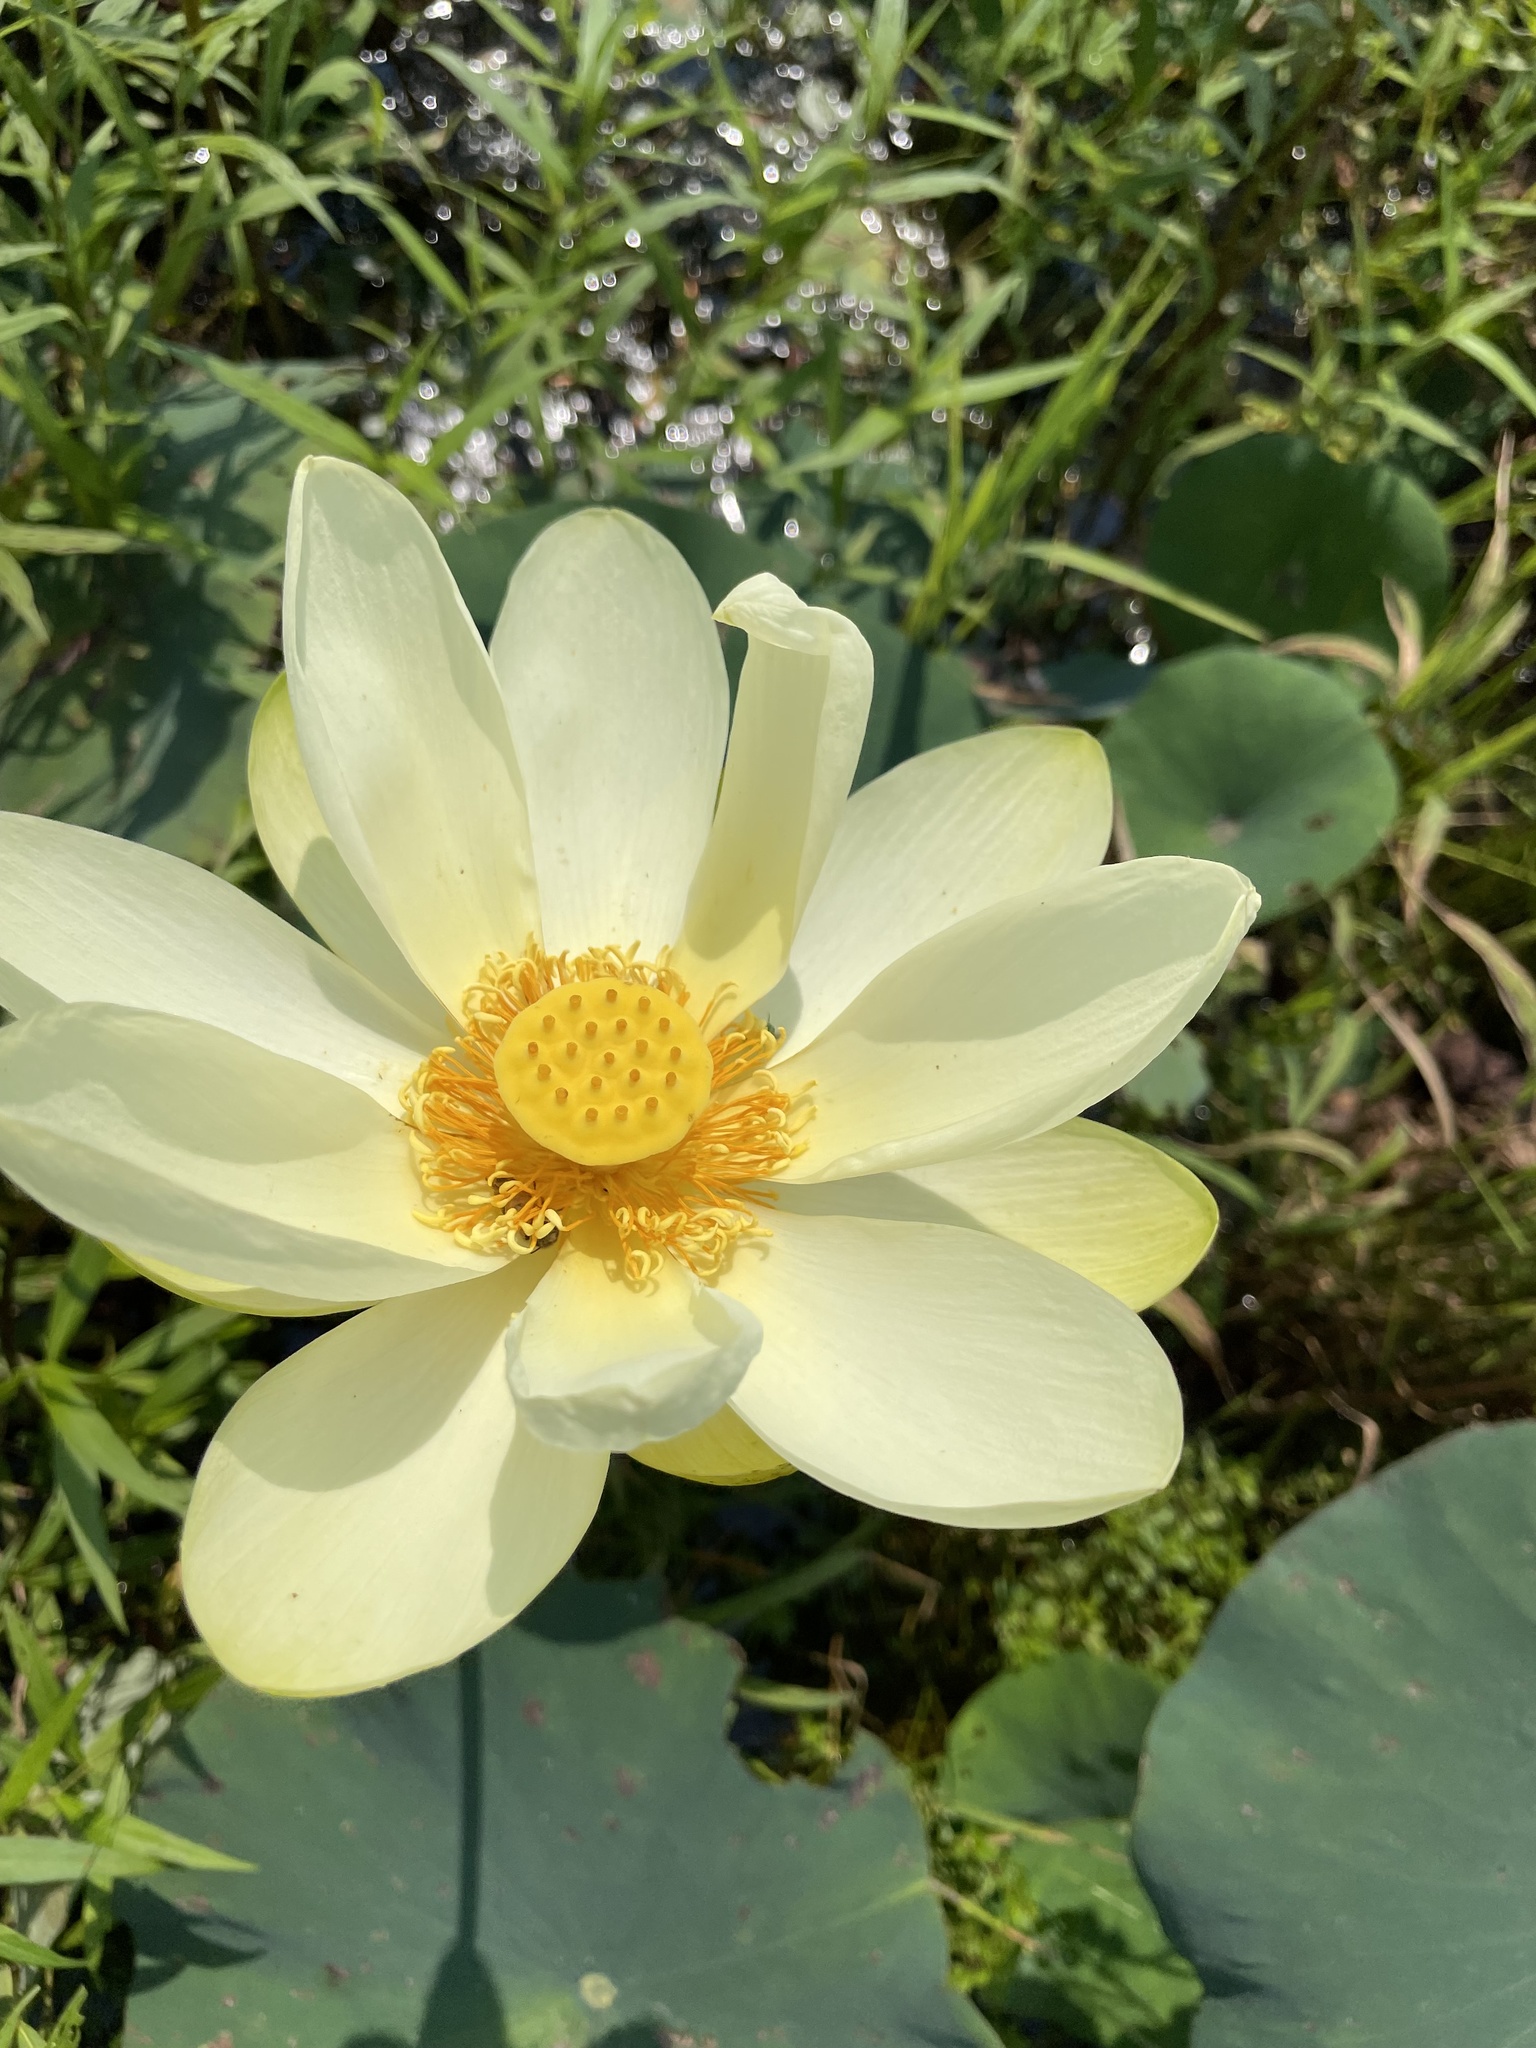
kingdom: Plantae
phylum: Tracheophyta
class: Magnoliopsida
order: Proteales
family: Nelumbonaceae
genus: Nelumbo
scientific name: Nelumbo lutea
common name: American lotus
